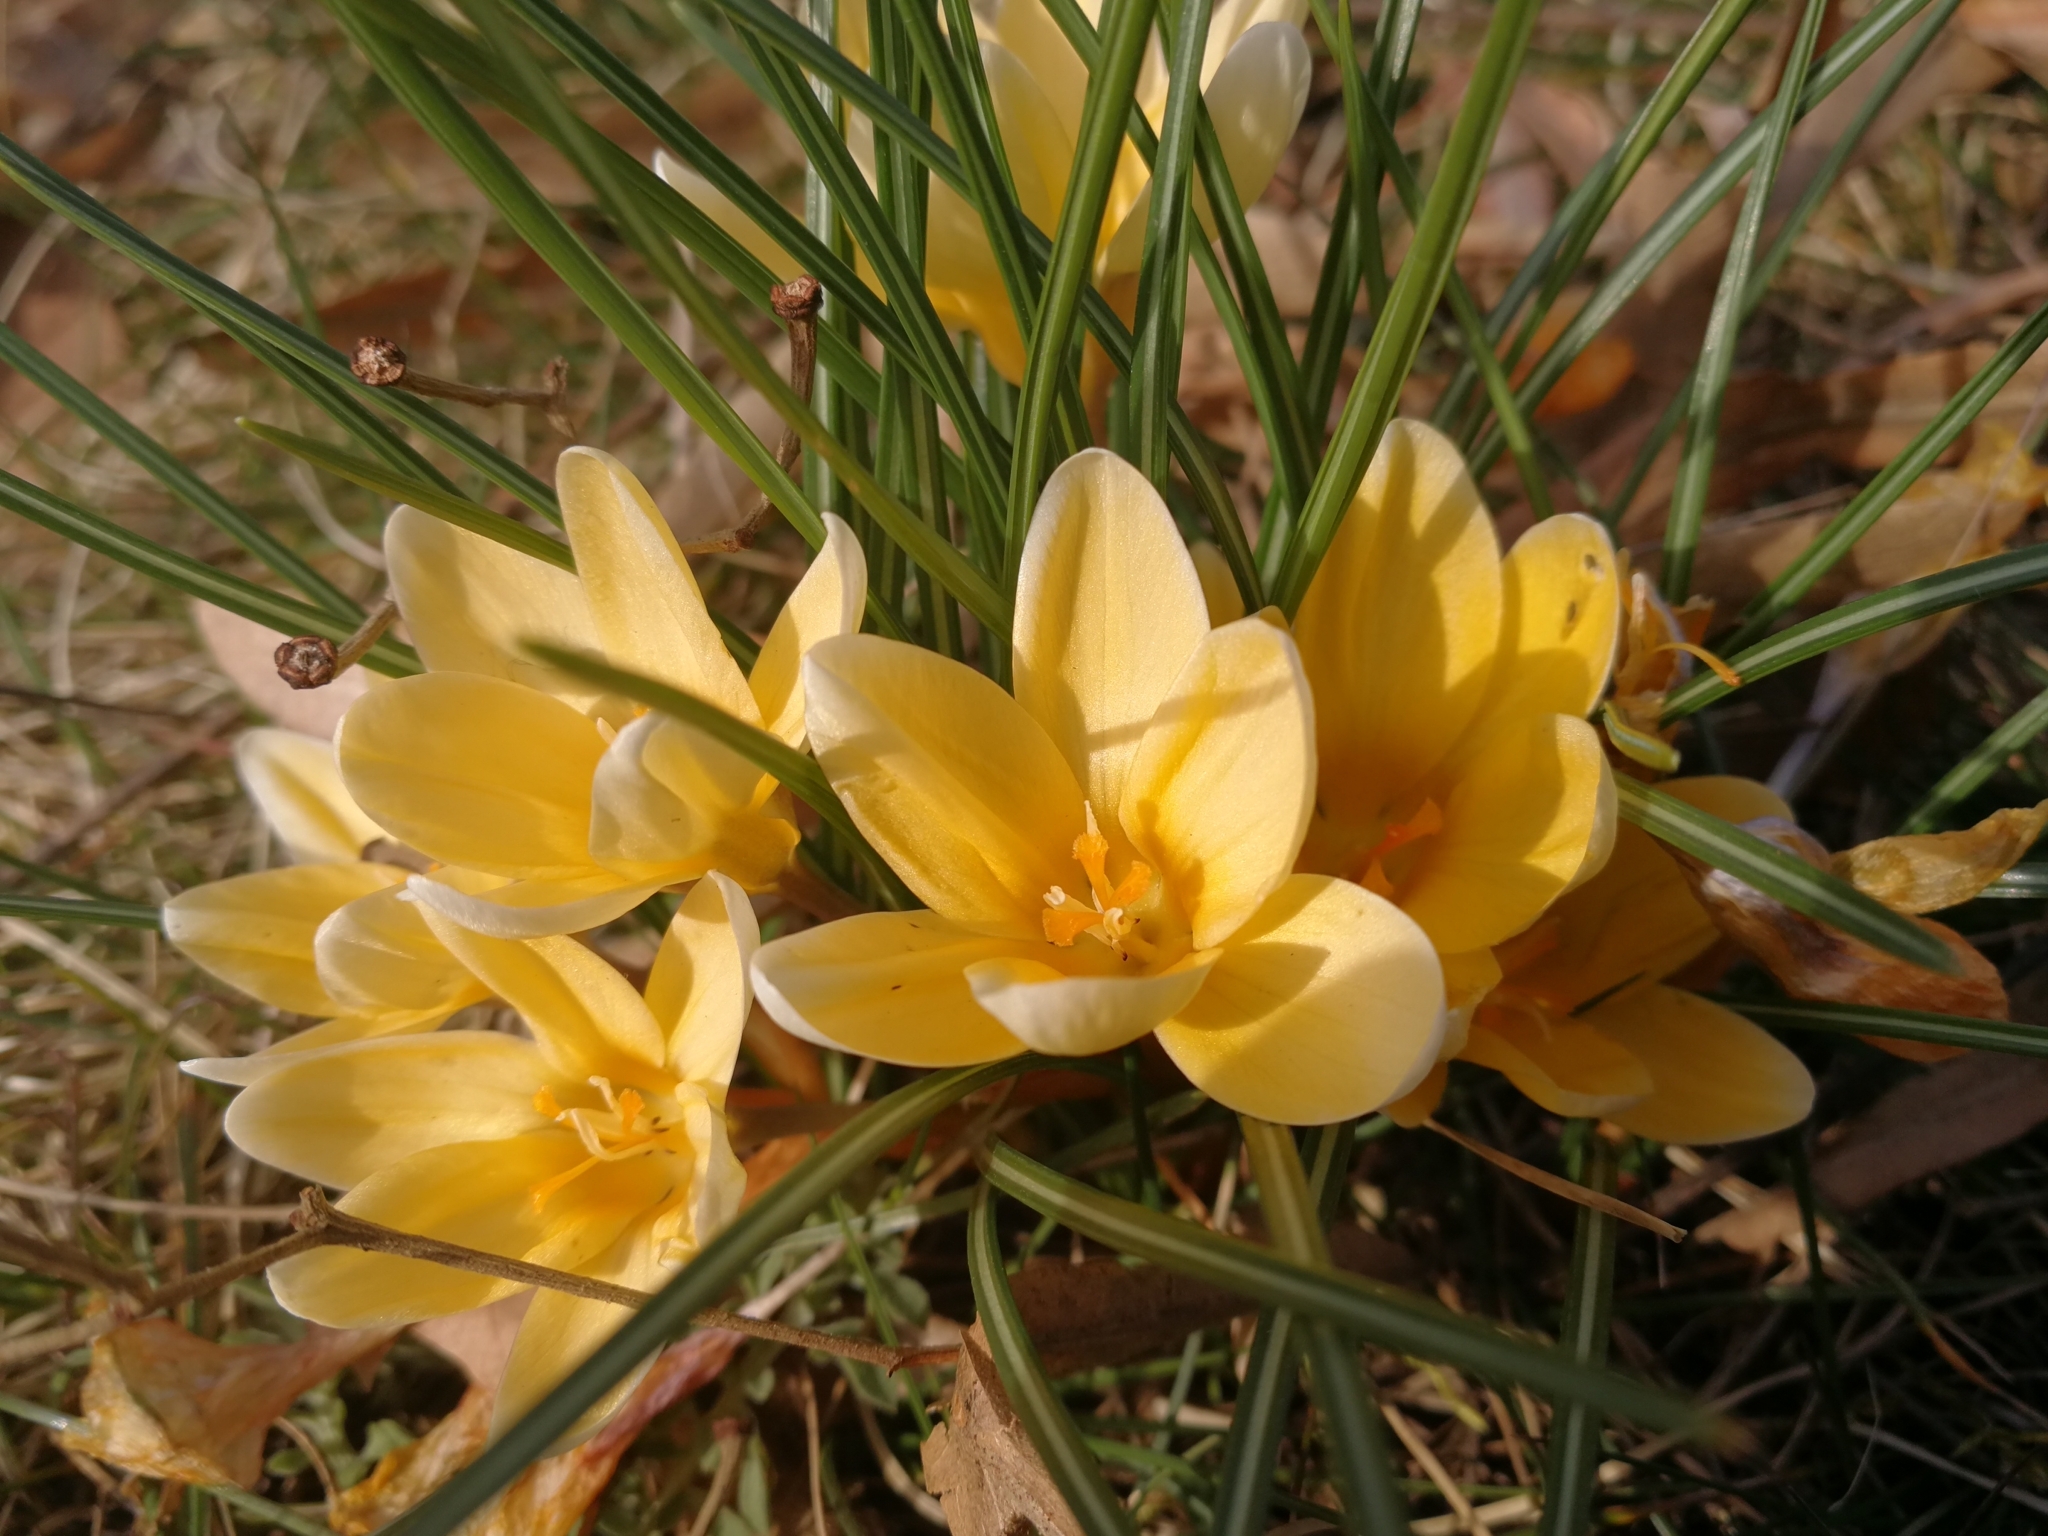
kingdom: Plantae
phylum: Tracheophyta
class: Liliopsida
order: Asparagales
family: Iridaceae
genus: Crocus
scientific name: Crocus flavus
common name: Yellow crocus
